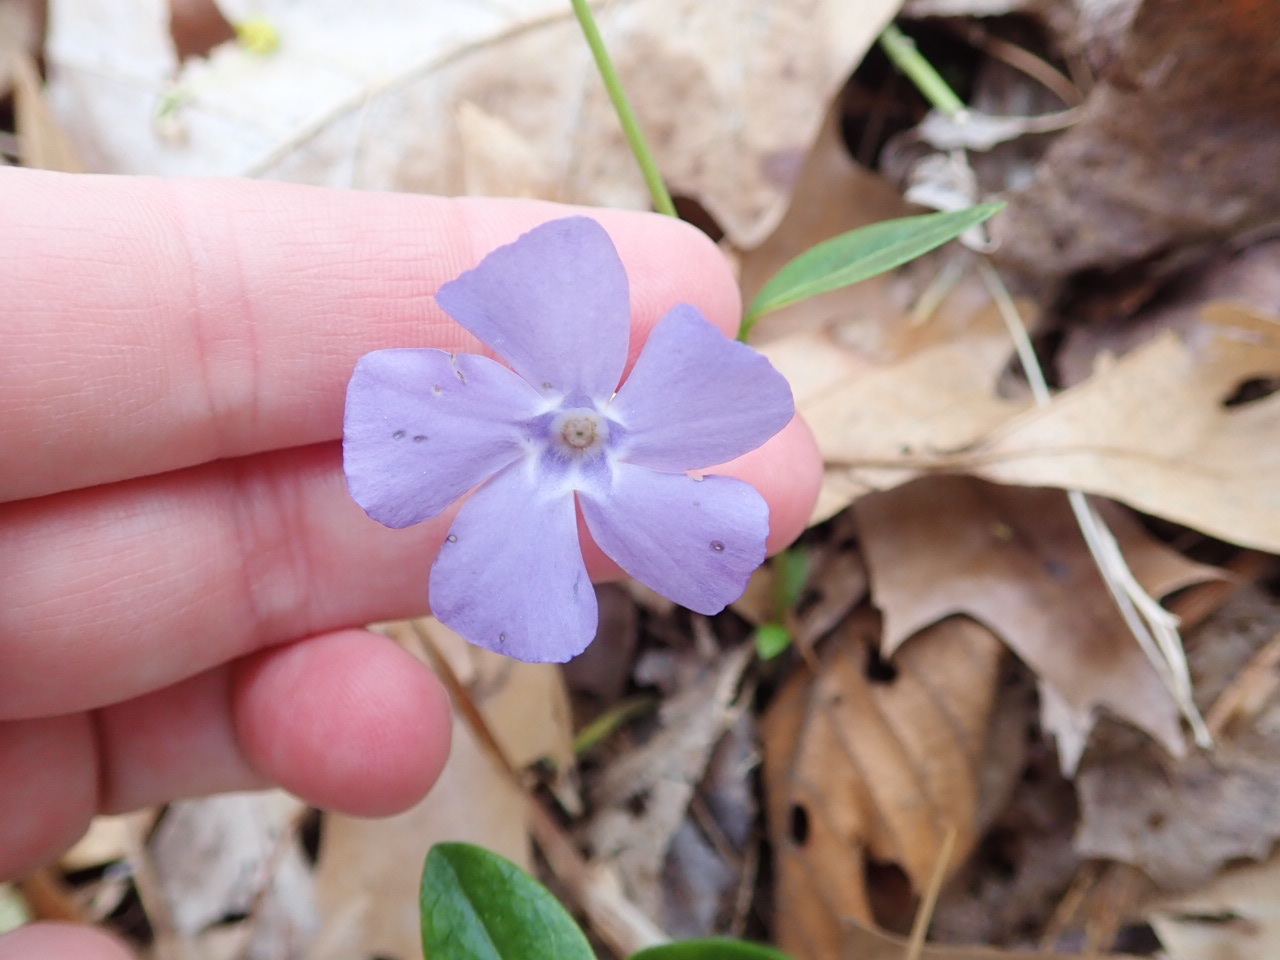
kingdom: Plantae
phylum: Tracheophyta
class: Magnoliopsida
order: Gentianales
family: Apocynaceae
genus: Vinca
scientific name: Vinca minor
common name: Lesser periwinkle
